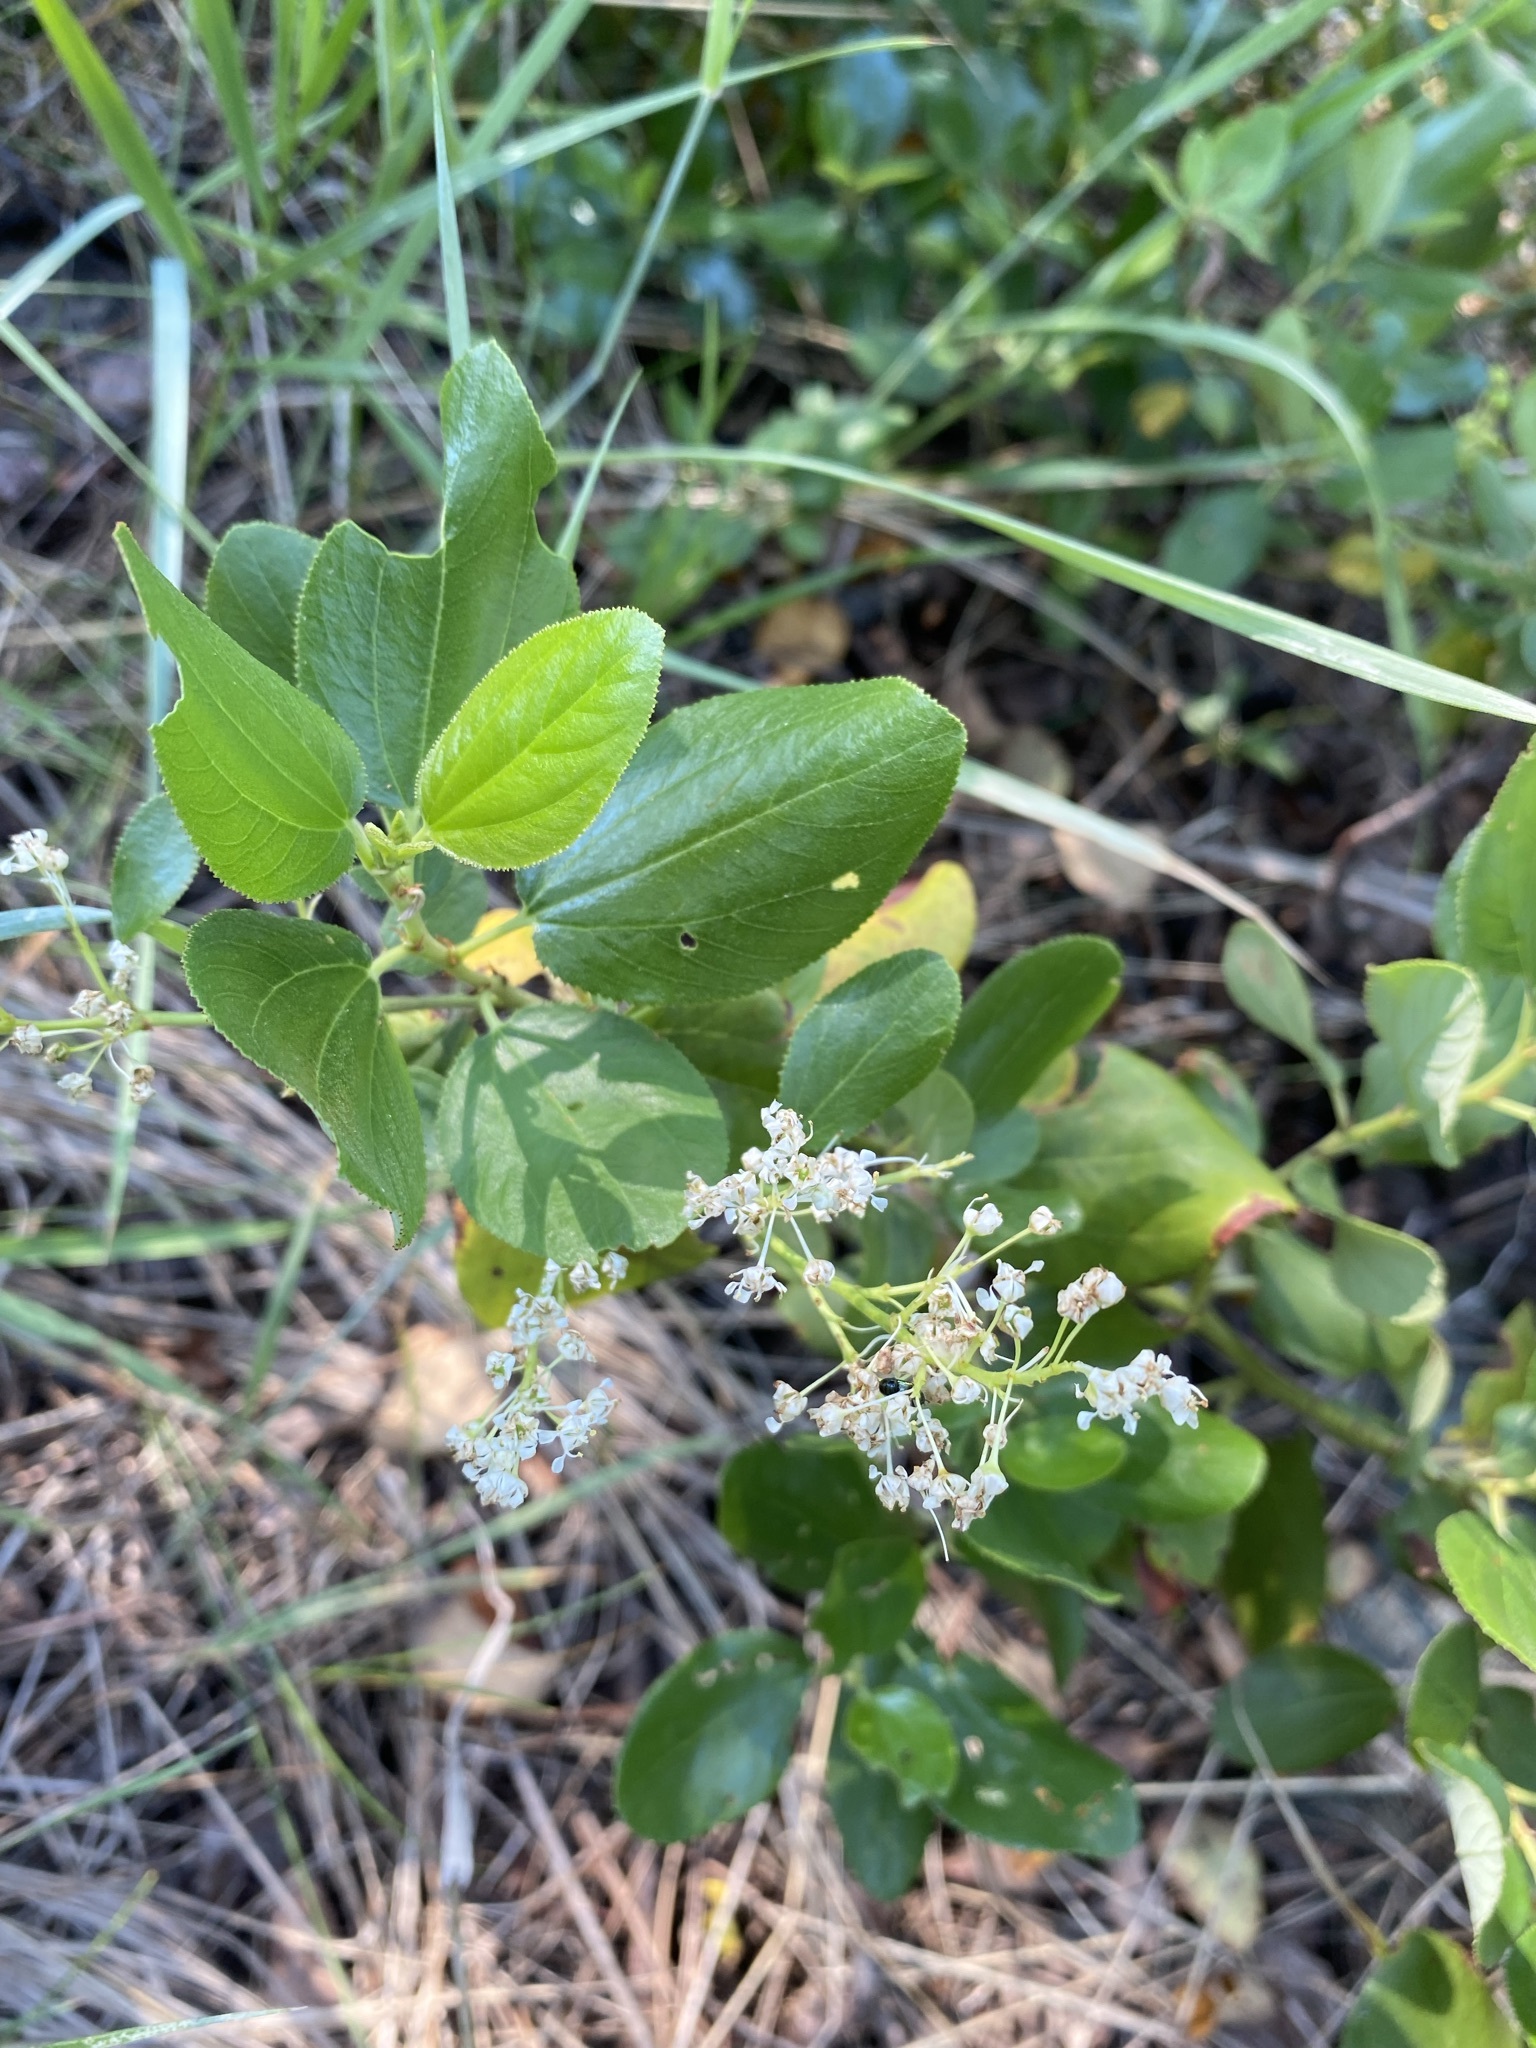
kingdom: Plantae
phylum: Tracheophyta
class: Magnoliopsida
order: Rosales
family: Rhamnaceae
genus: Ceanothus
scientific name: Ceanothus velutinus
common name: Snowbrush
